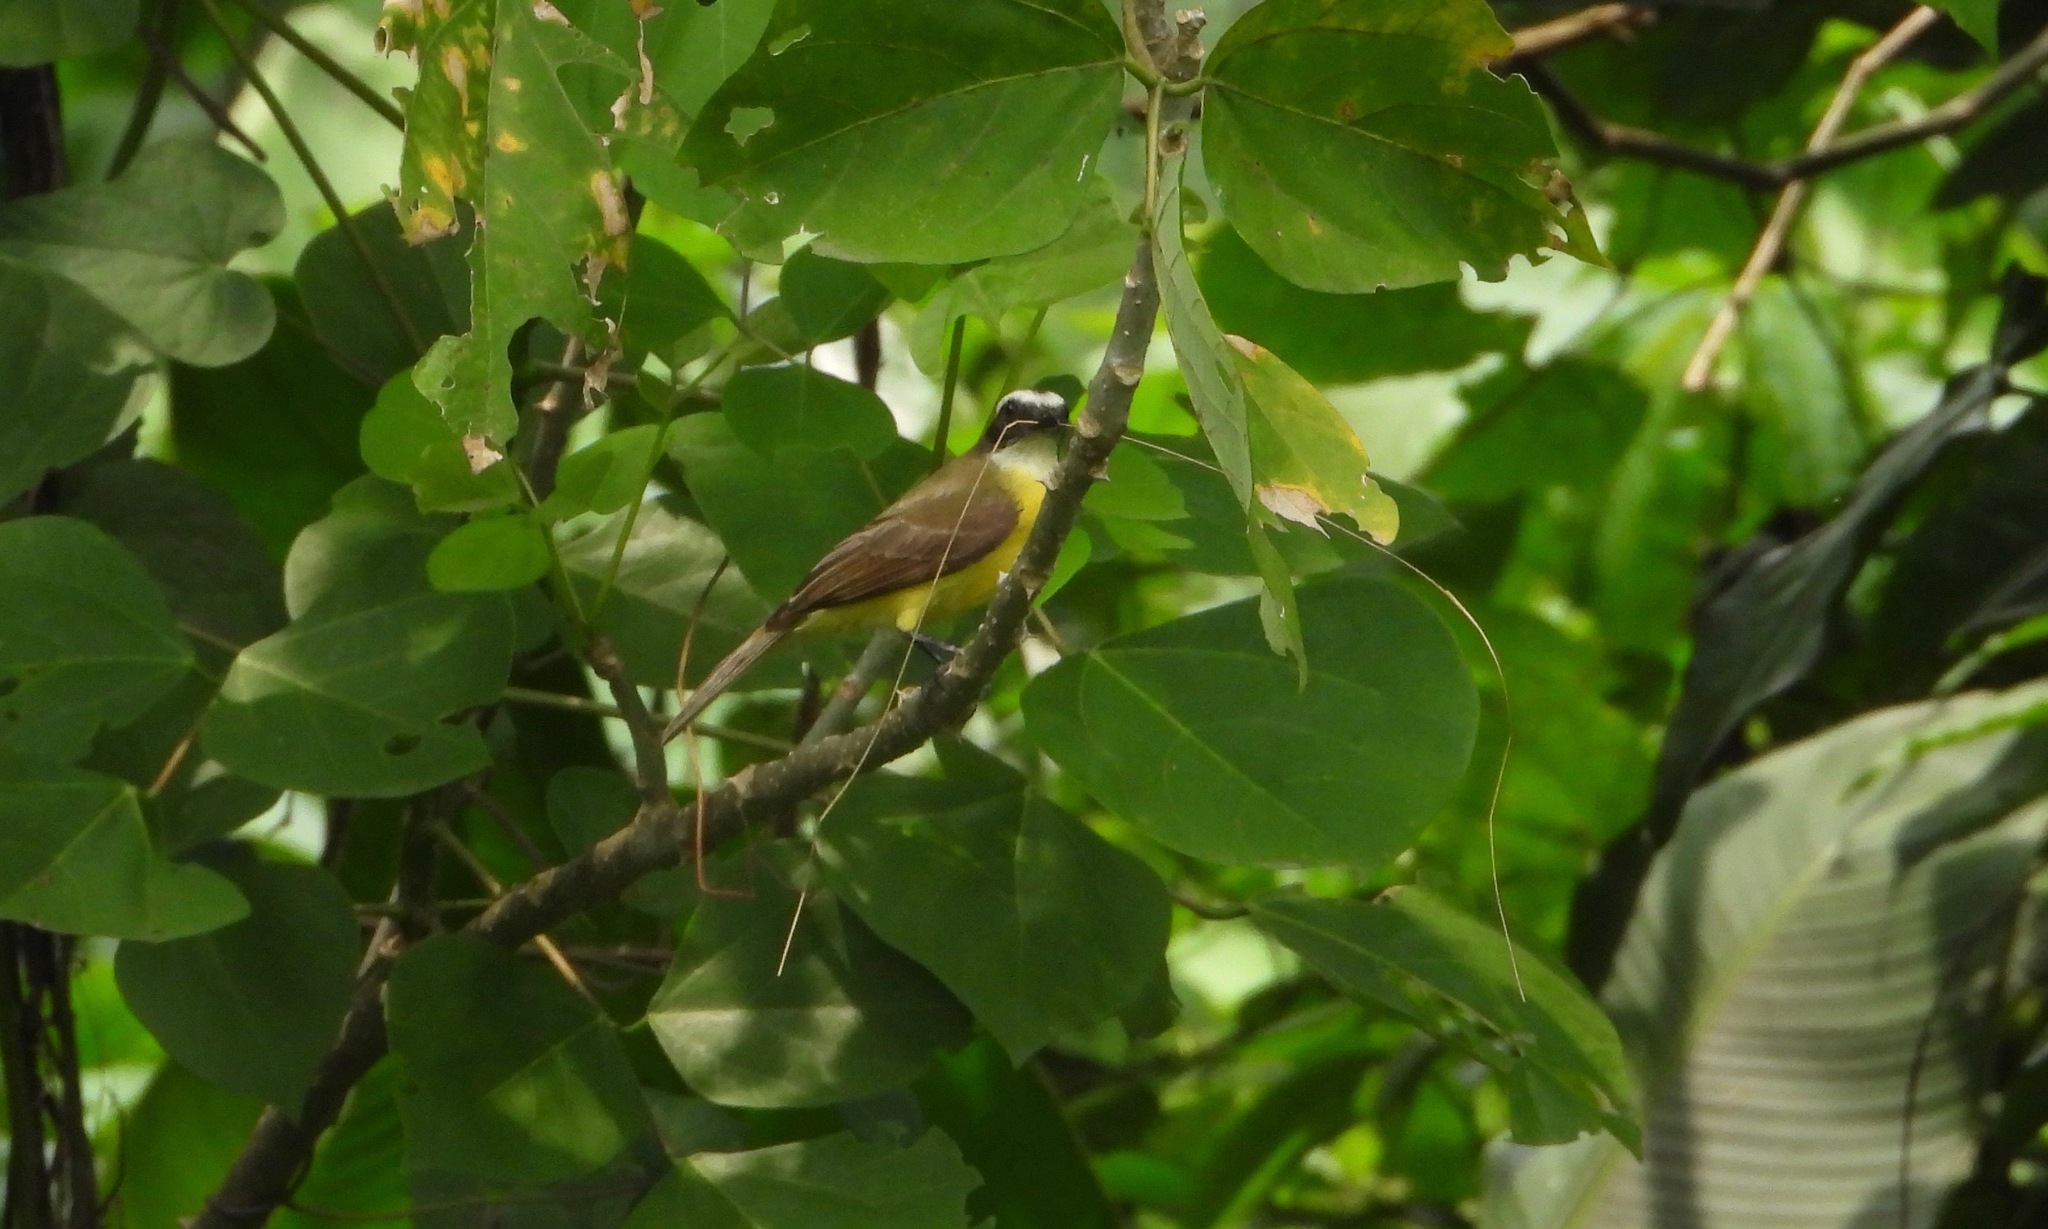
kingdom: Animalia
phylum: Chordata
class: Aves
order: Passeriformes
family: Tyrannidae
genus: Myiozetetes
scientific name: Myiozetetes similis
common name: Social flycatcher
